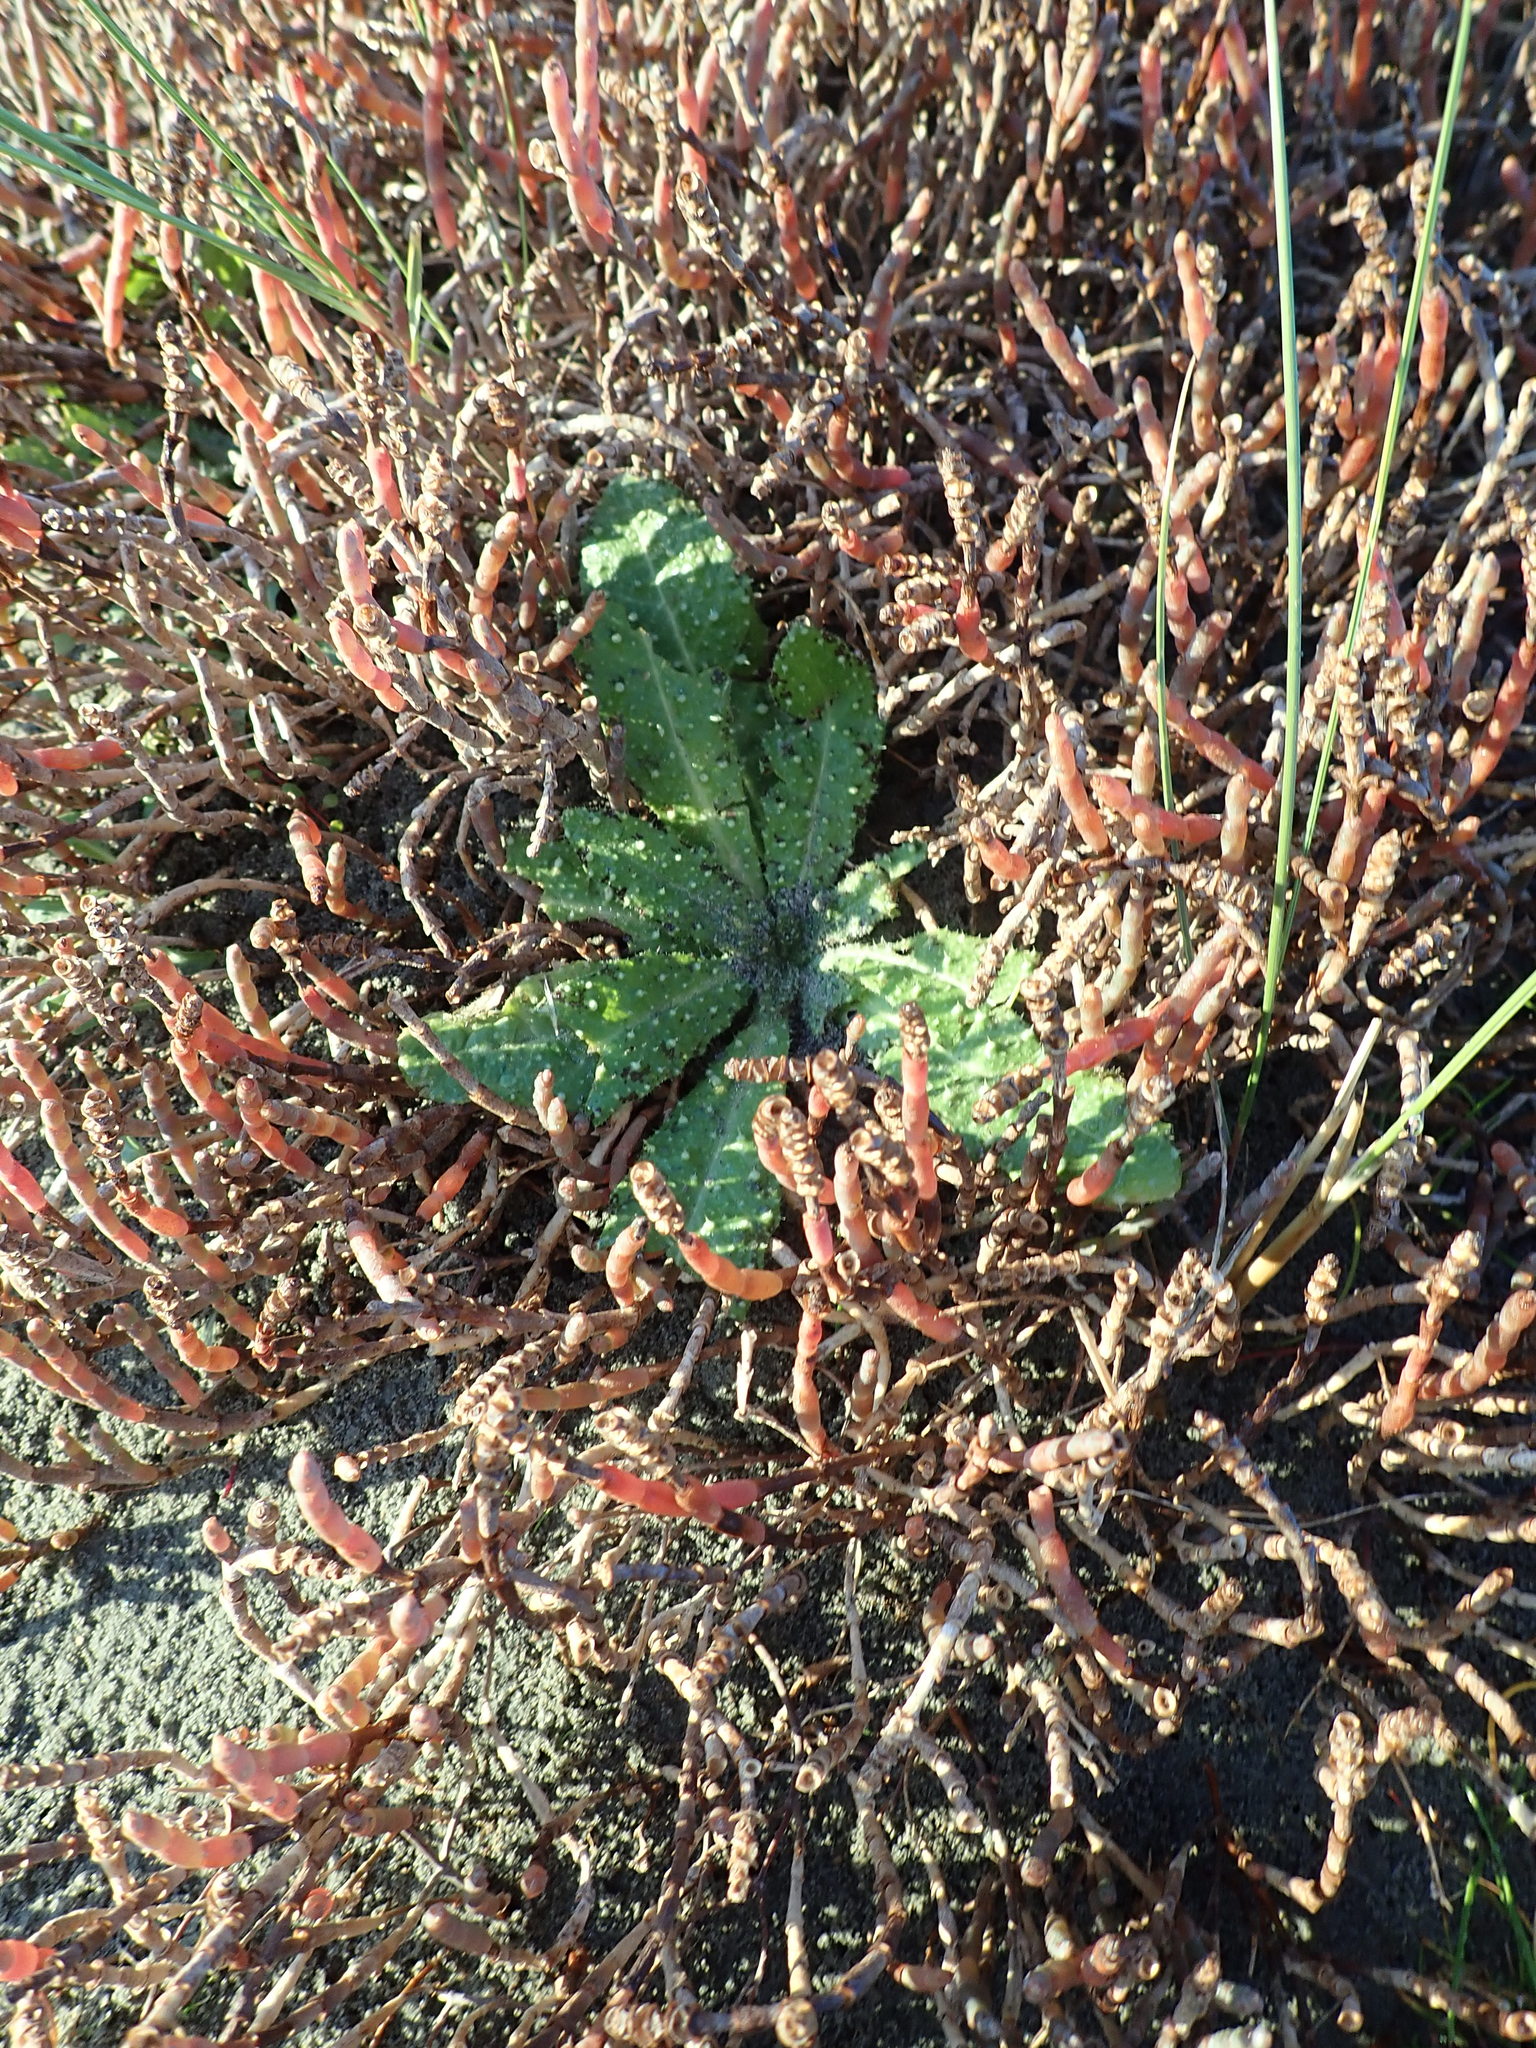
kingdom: Plantae
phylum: Tracheophyta
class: Magnoliopsida
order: Asterales
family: Asteraceae
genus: Helminthotheca
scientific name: Helminthotheca echioides
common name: Ox-tongue
